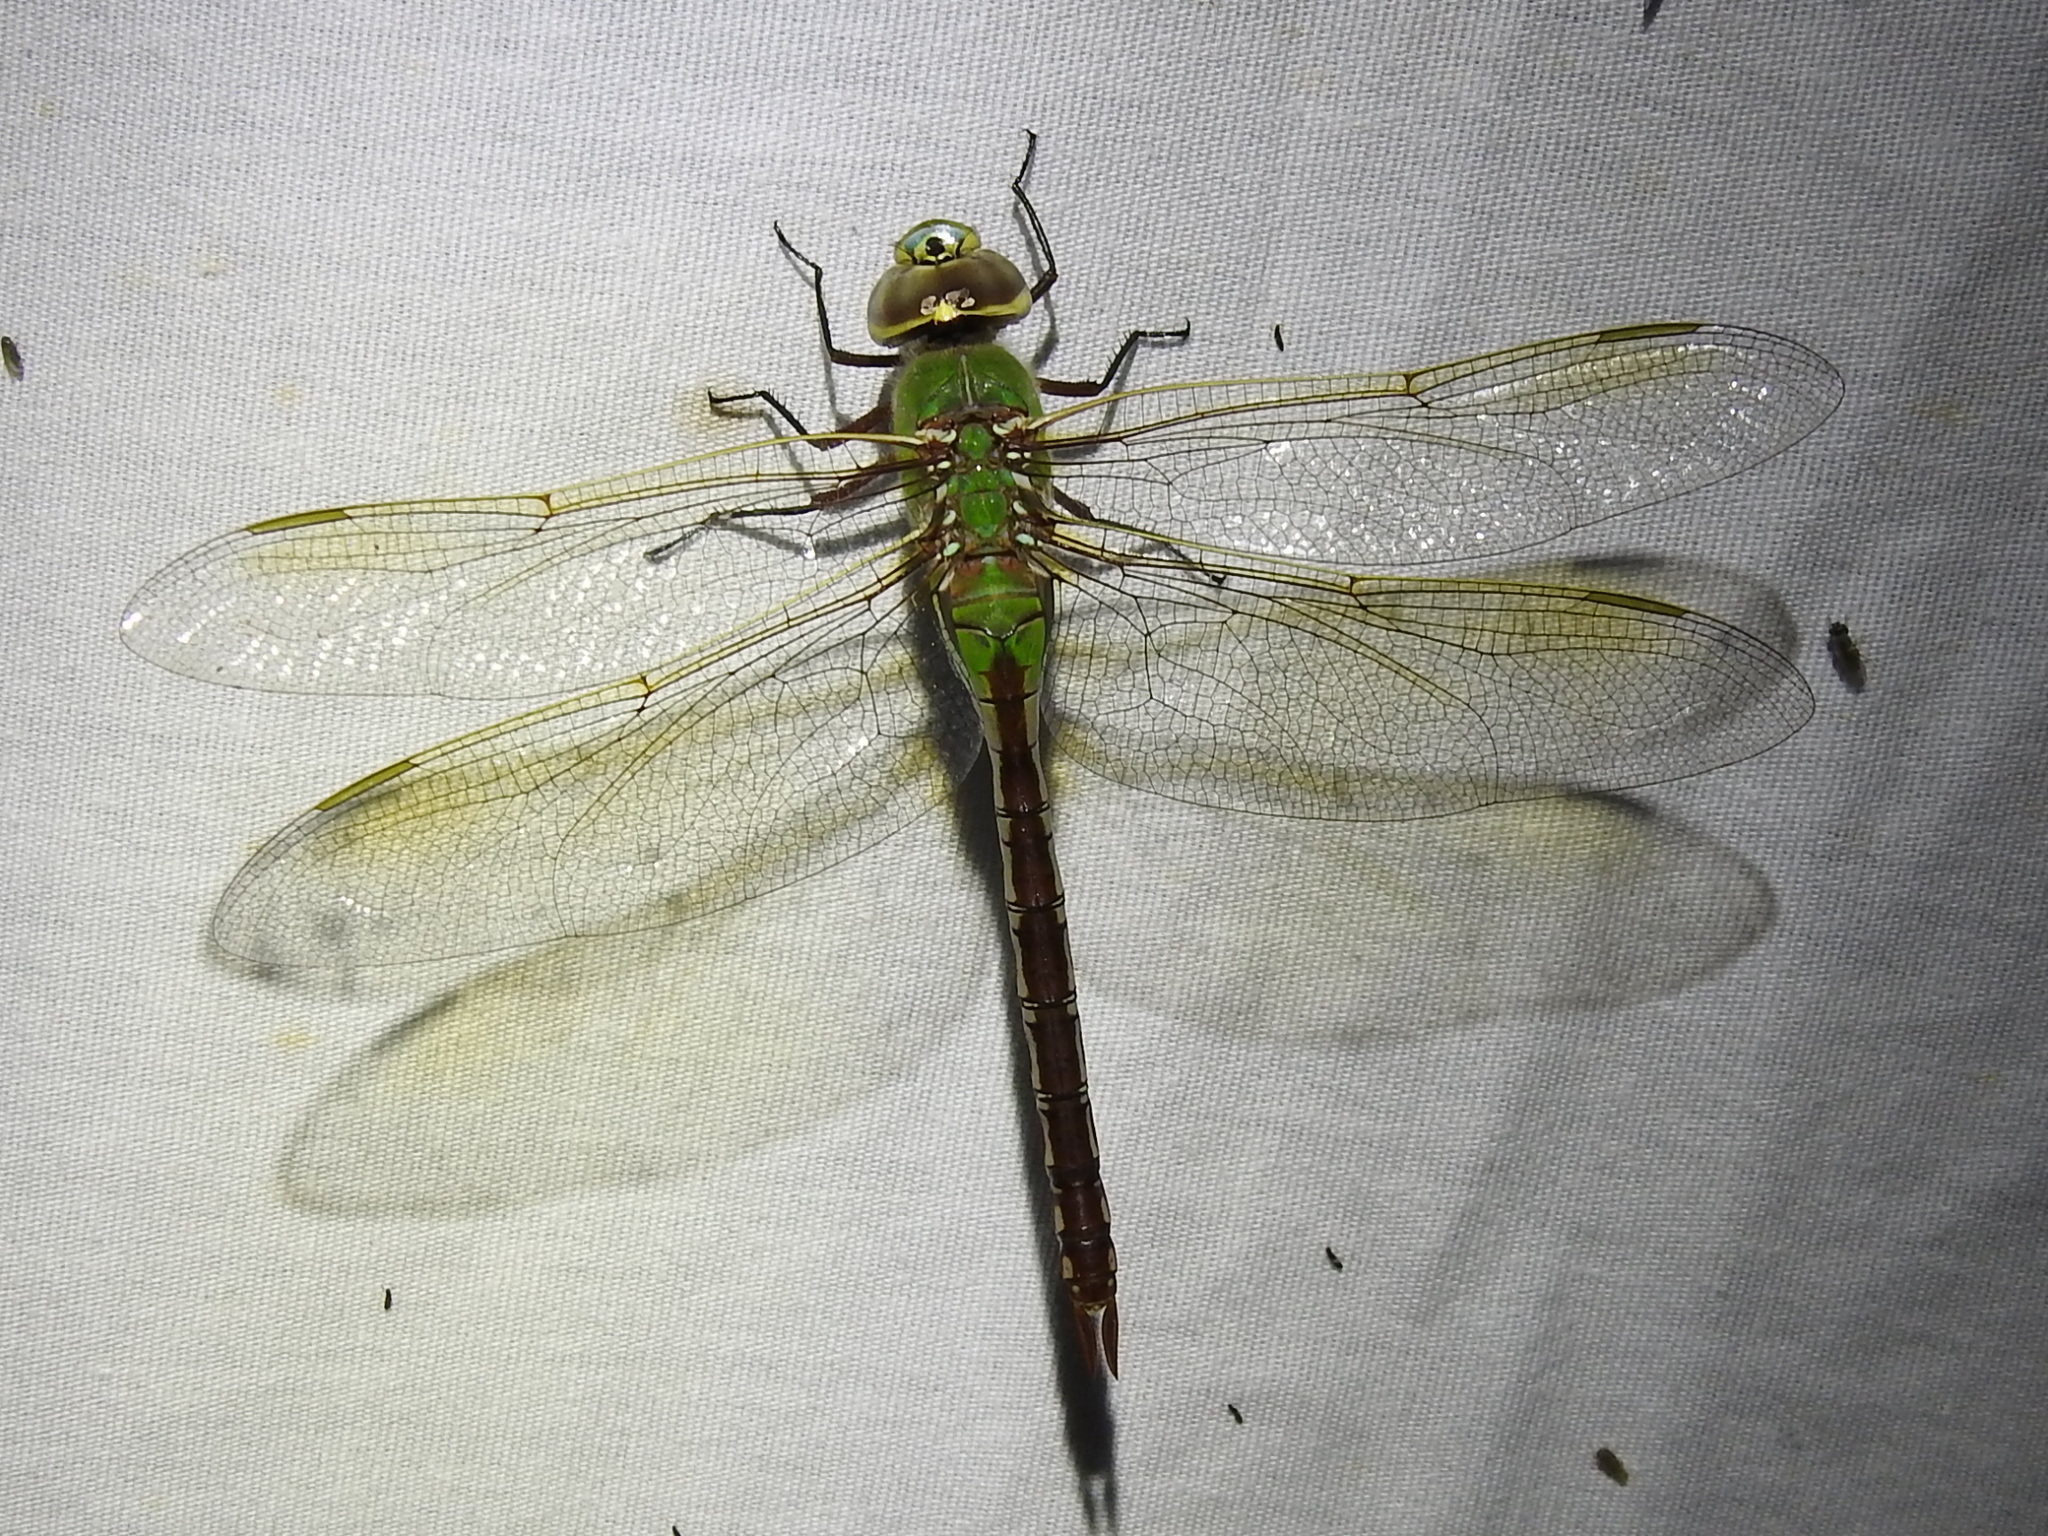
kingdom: Animalia
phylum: Arthropoda
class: Insecta
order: Odonata
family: Aeshnidae
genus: Anax
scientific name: Anax junius
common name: Common green darner
